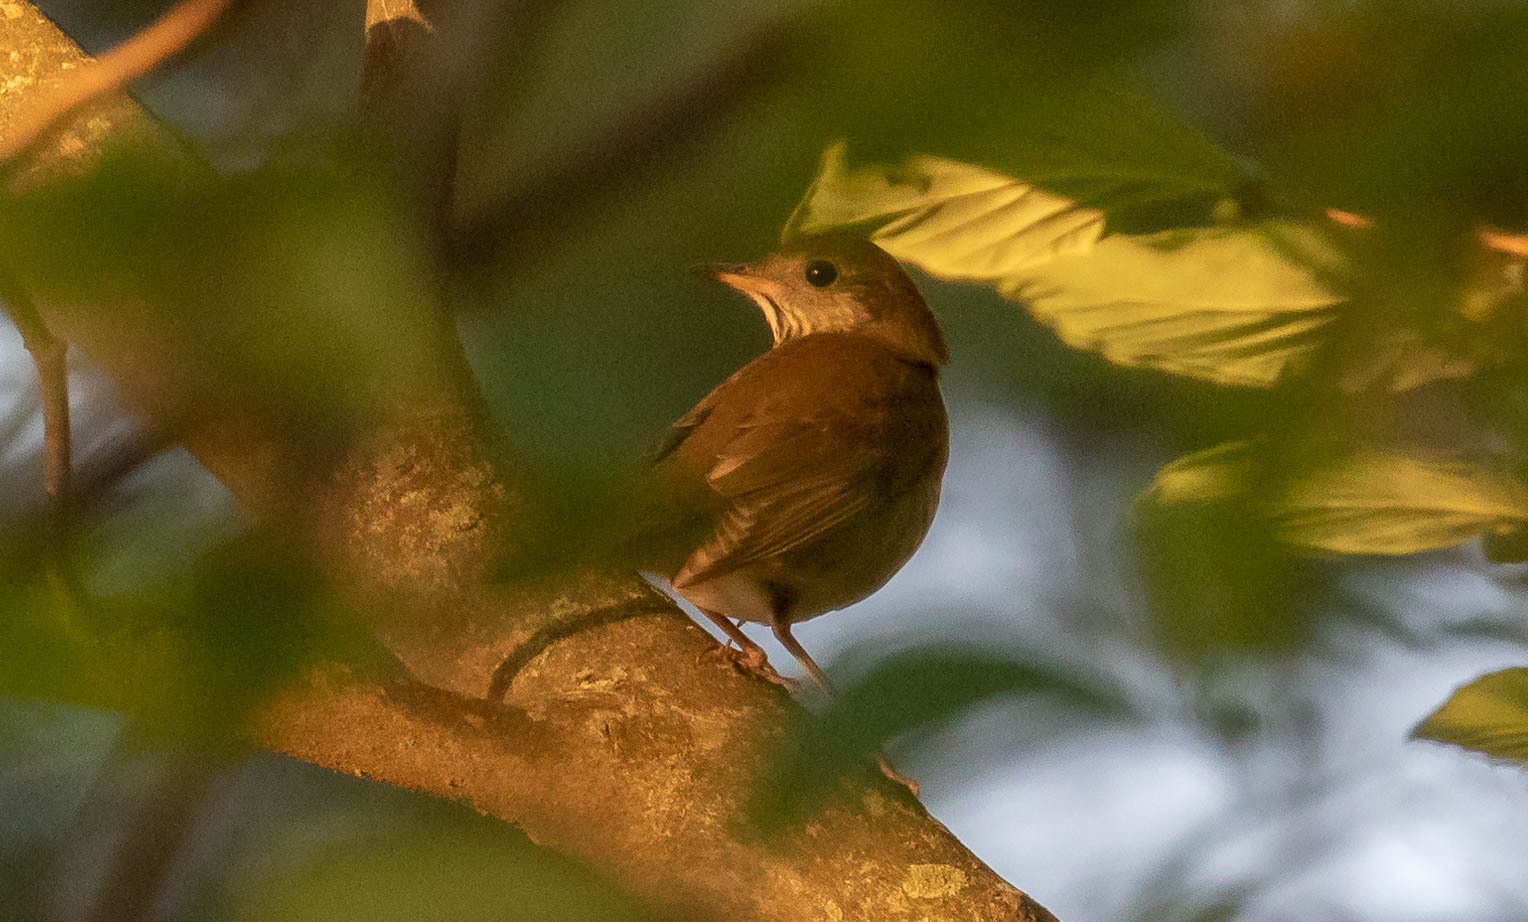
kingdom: Animalia
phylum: Chordata
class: Aves
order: Passeriformes
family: Turdidae
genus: Catharus
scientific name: Catharus minimus
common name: Grey-cheeked thrush
